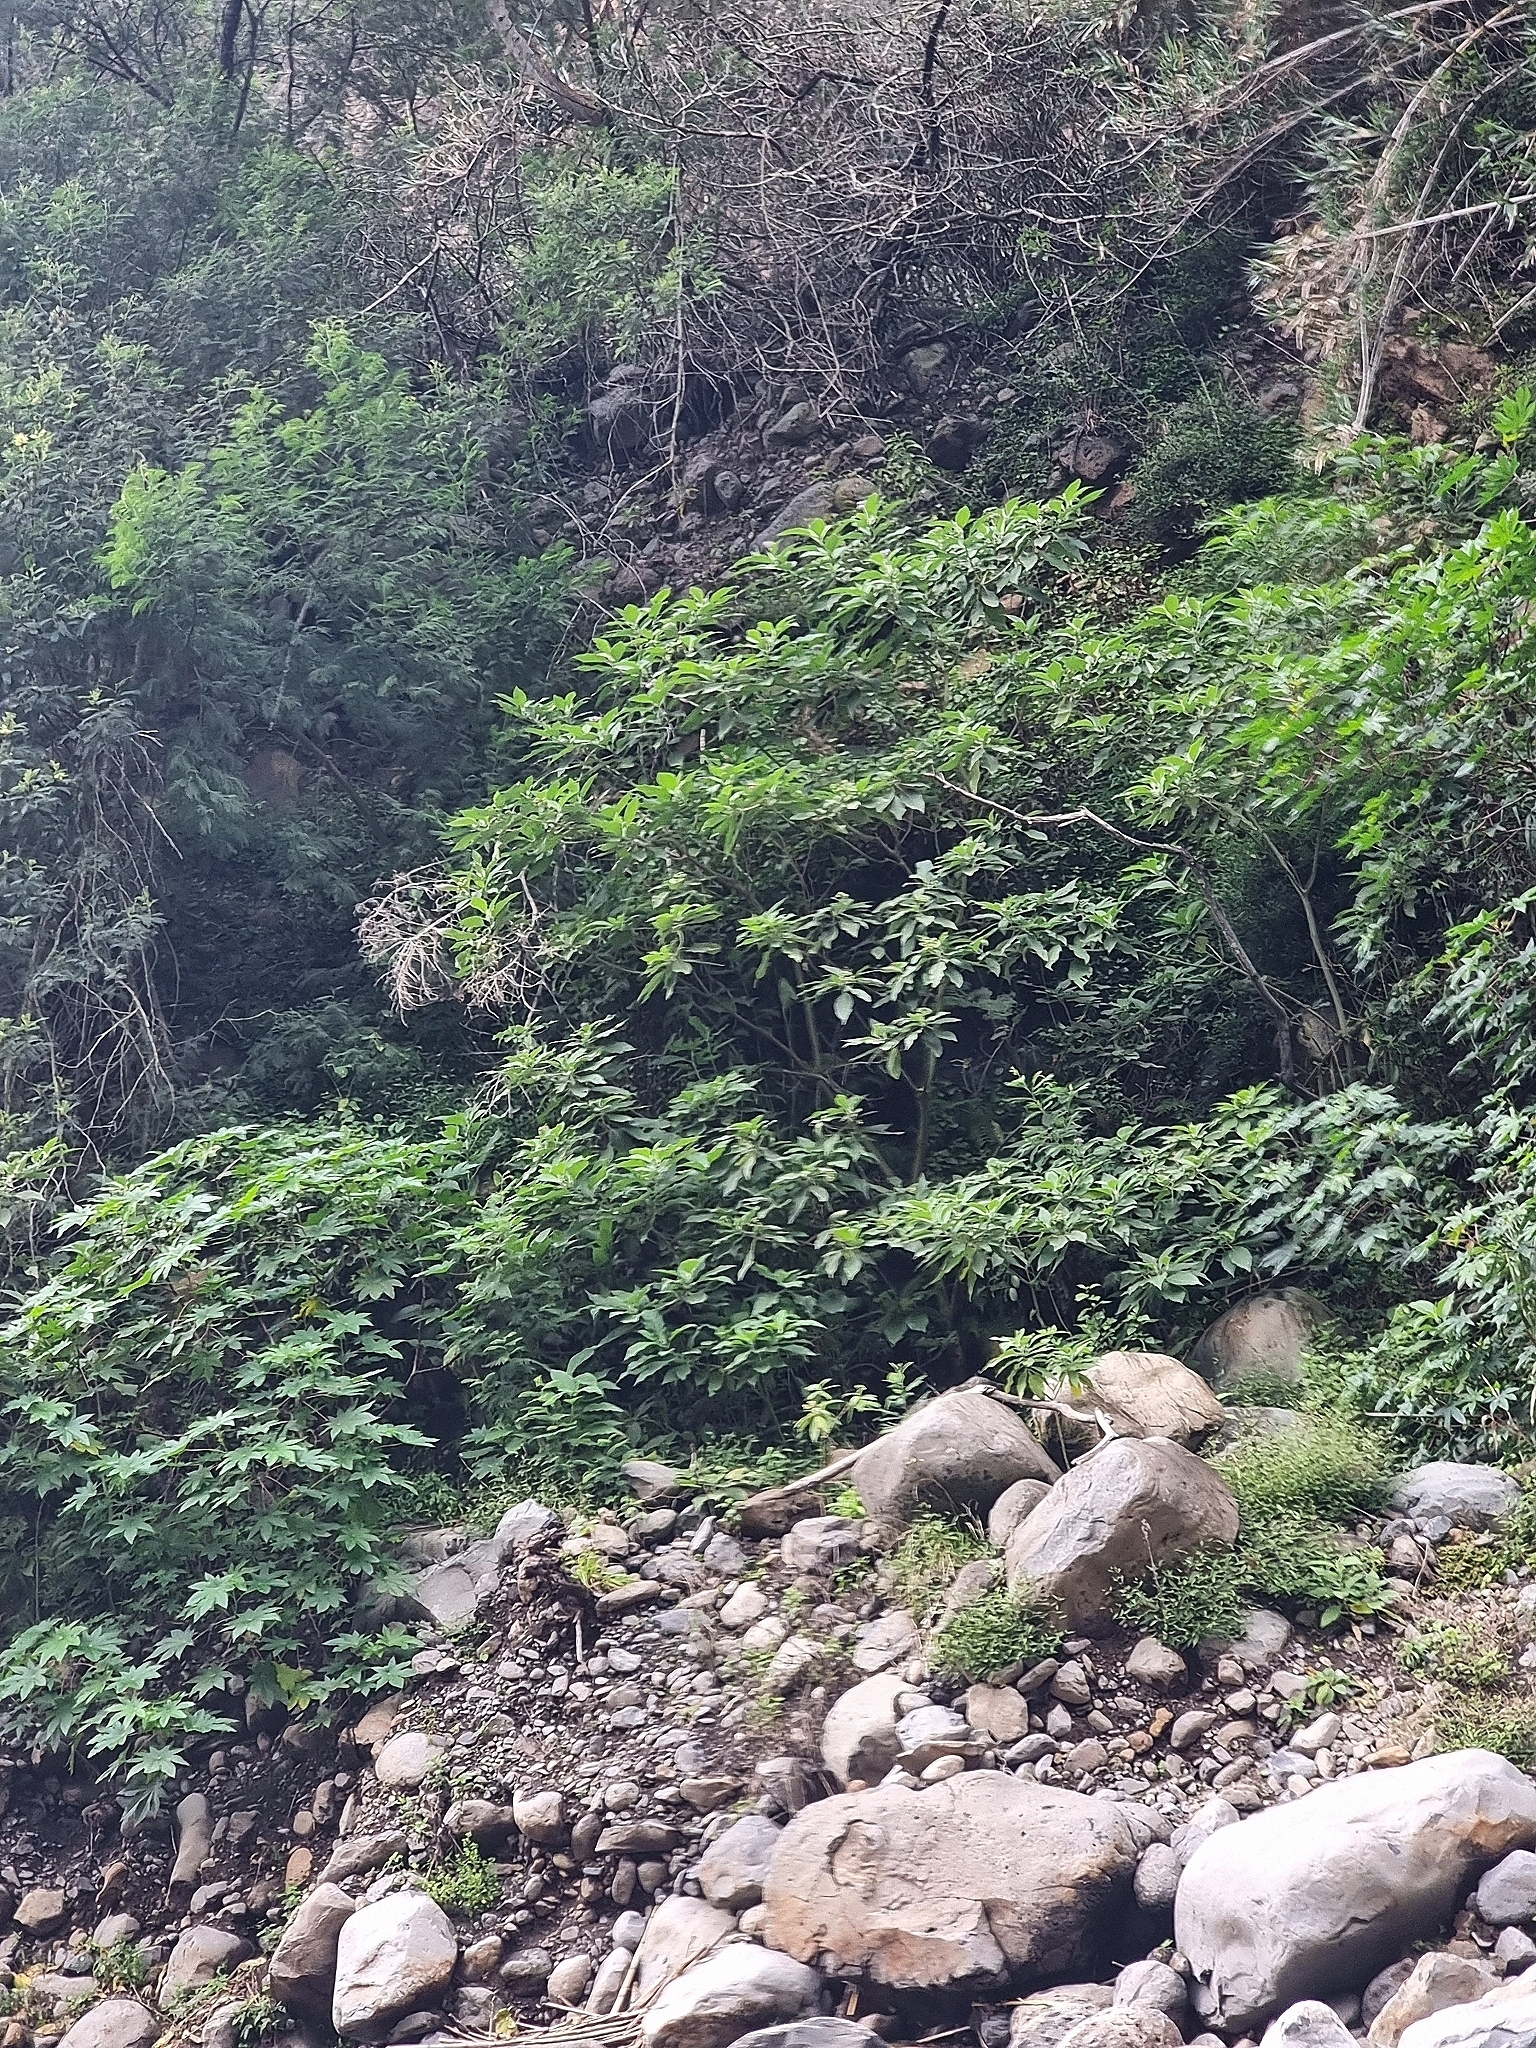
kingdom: Plantae
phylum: Tracheophyta
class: Magnoliopsida
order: Malpighiales
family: Euphorbiaceae
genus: Ricinus
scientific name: Ricinus communis
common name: Castor-oil-plant
